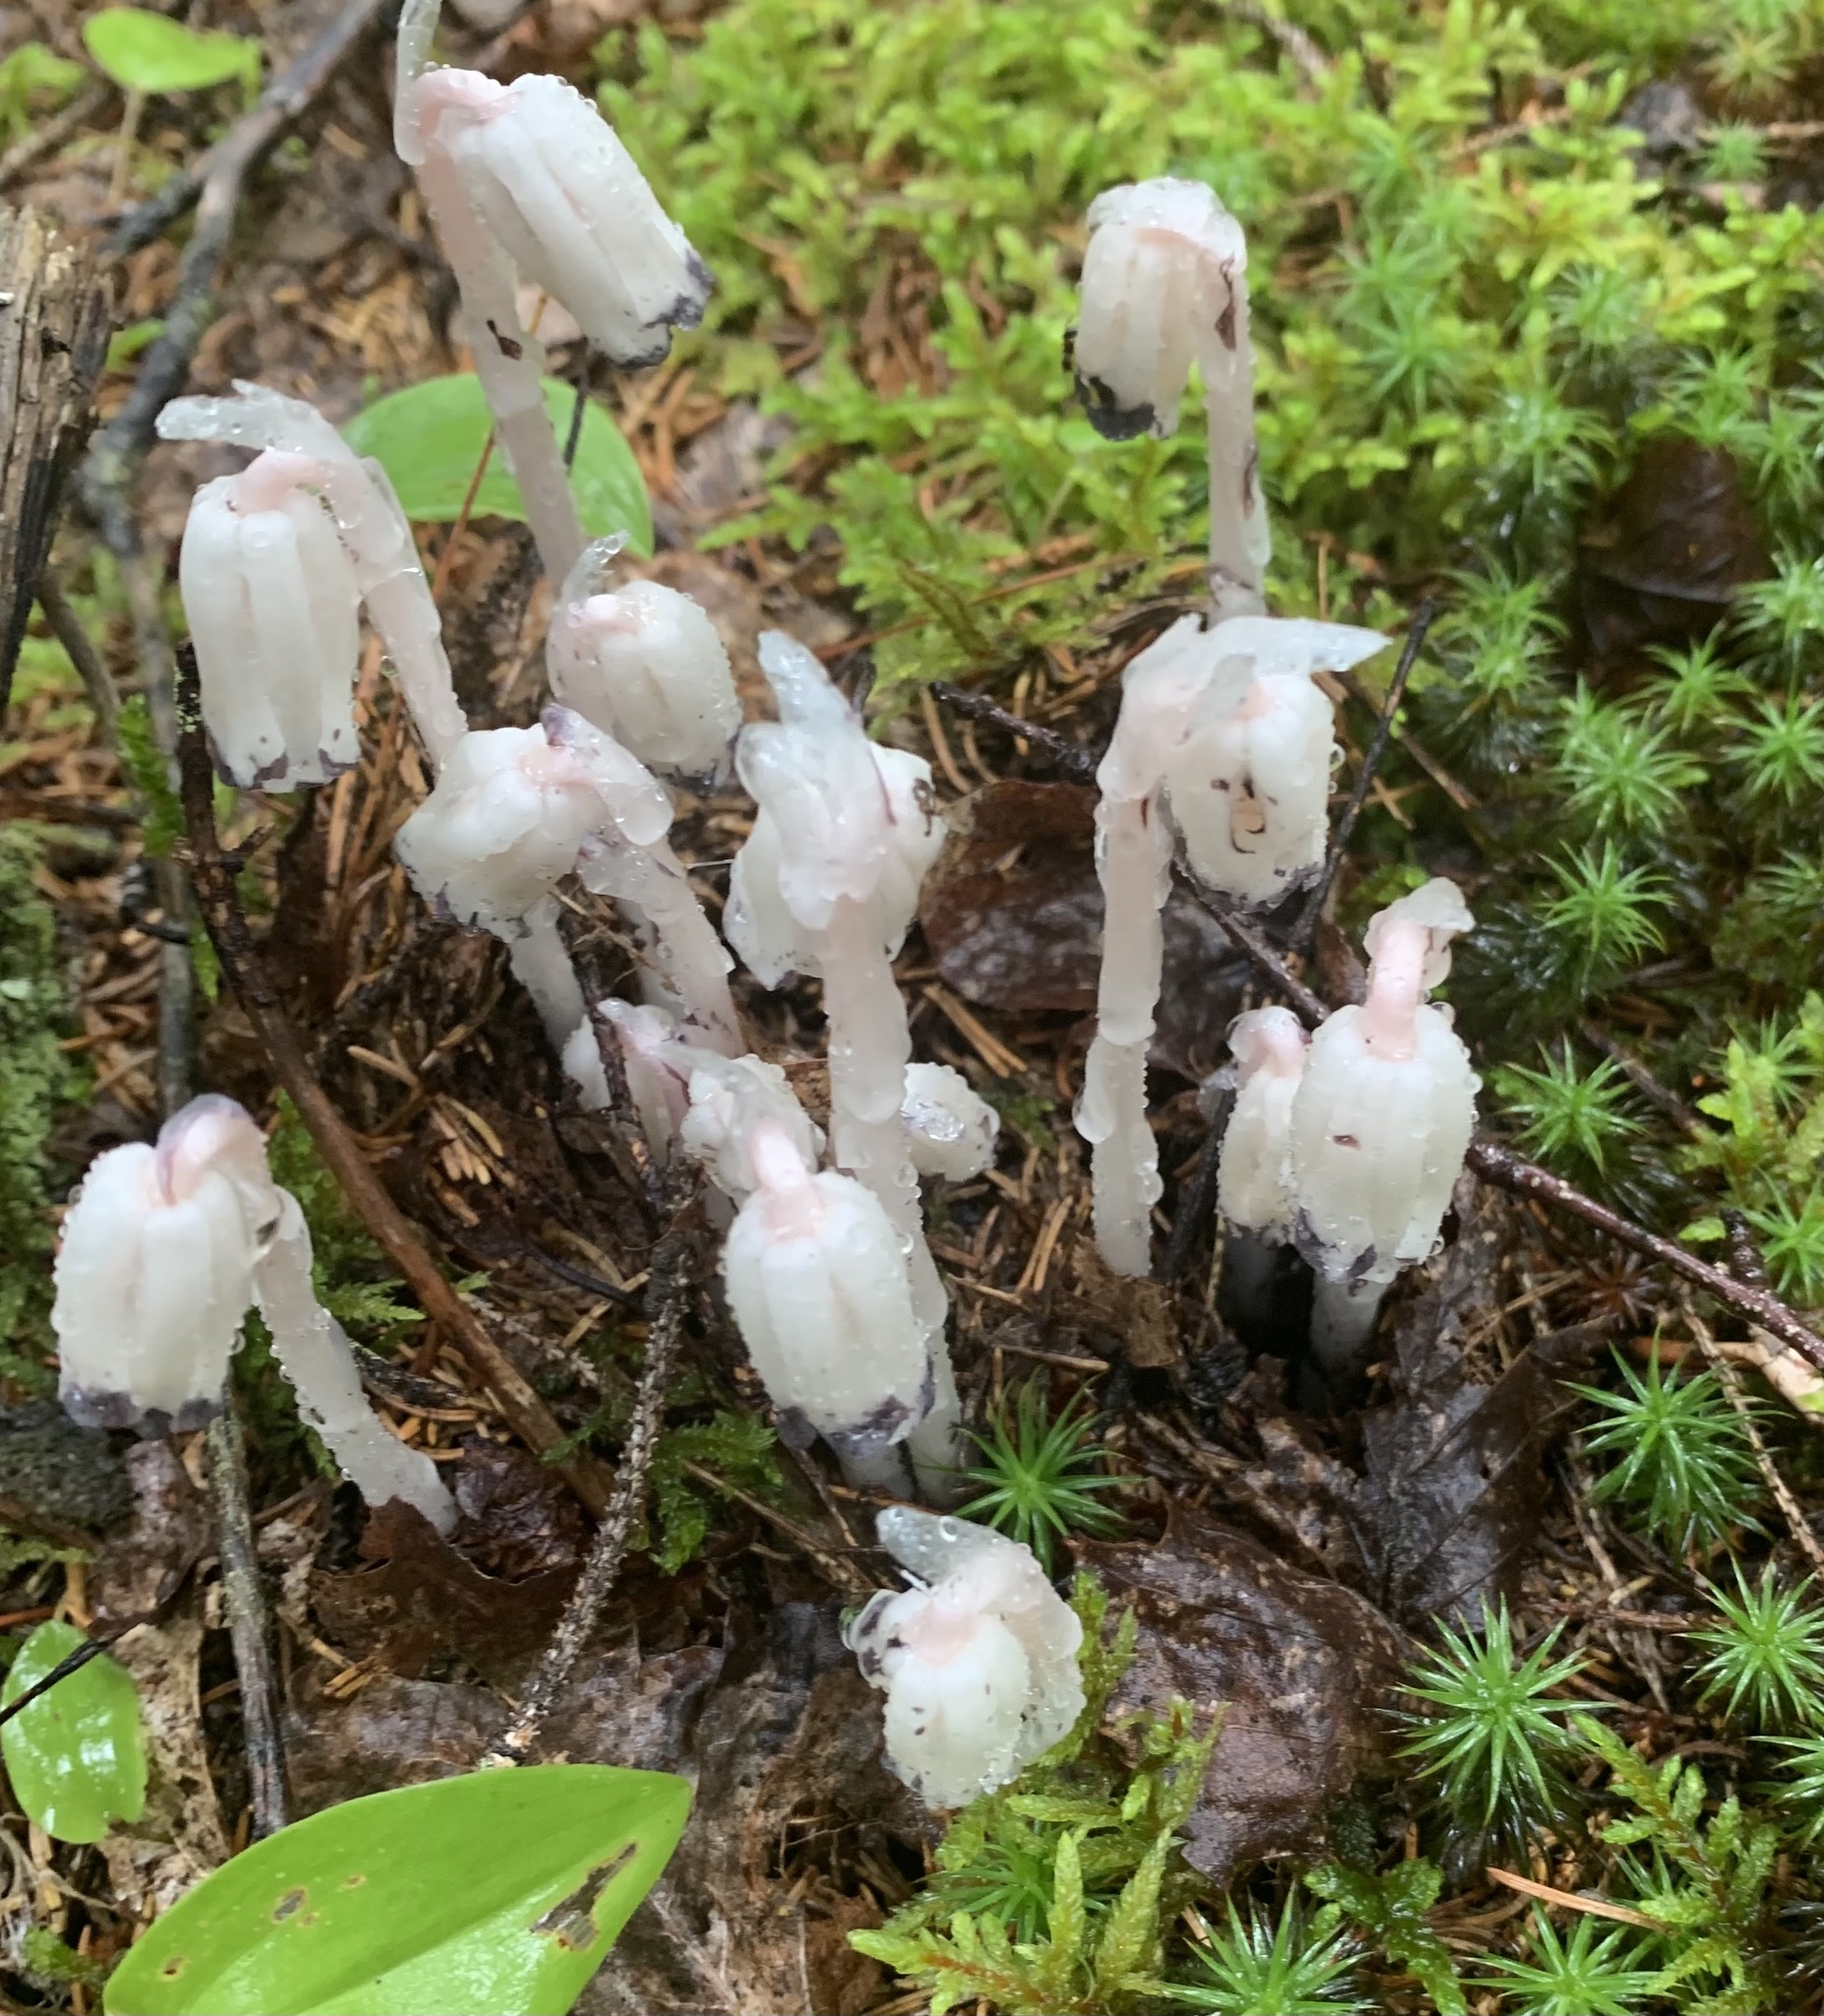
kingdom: Plantae
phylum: Tracheophyta
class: Magnoliopsida
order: Ericales
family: Ericaceae
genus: Monotropa
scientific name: Monotropa uniflora
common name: Convulsion root
